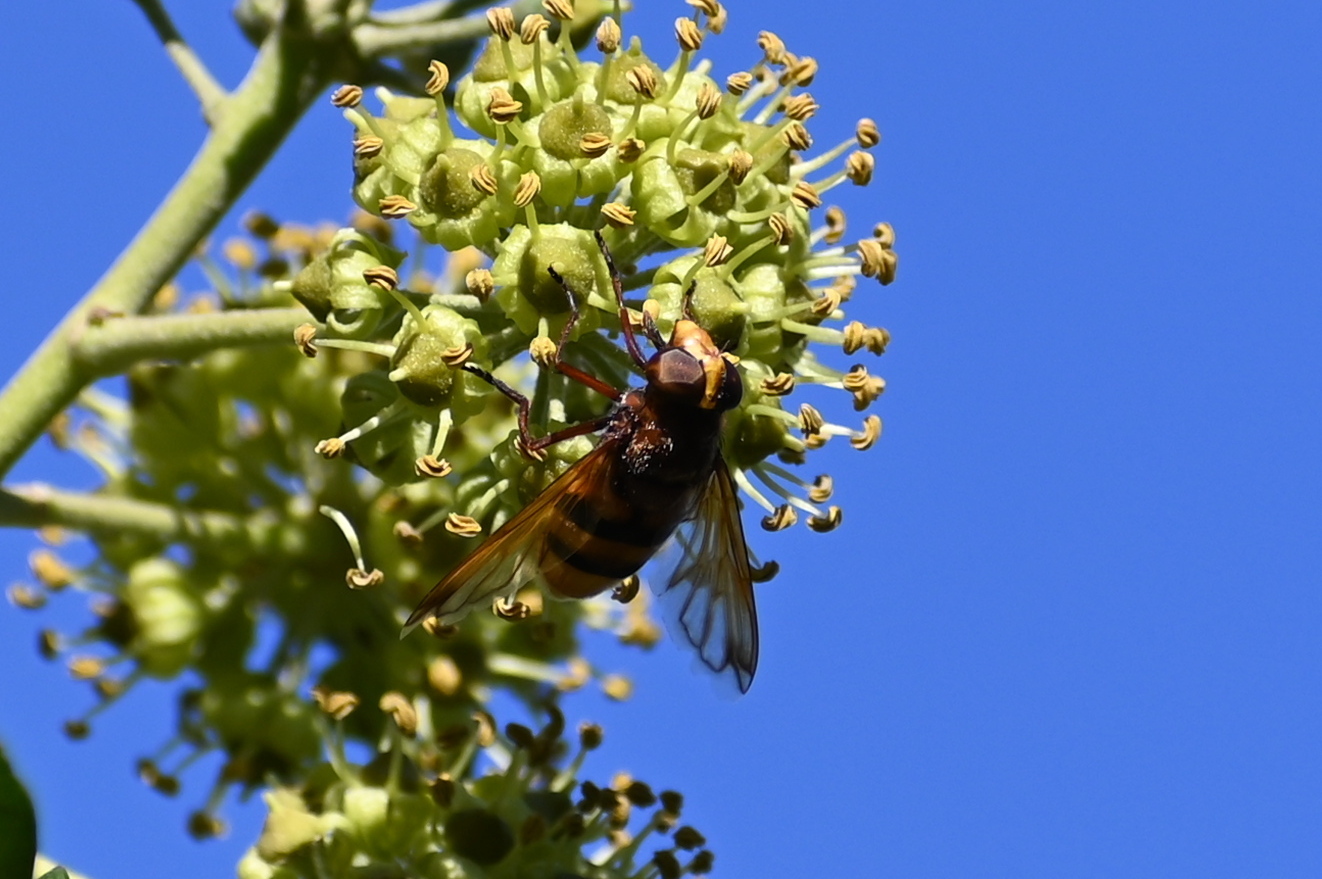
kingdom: Animalia
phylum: Arthropoda
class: Insecta
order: Diptera
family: Syrphidae
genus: Volucella
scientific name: Volucella zonaria
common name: Hornet hoverfly
